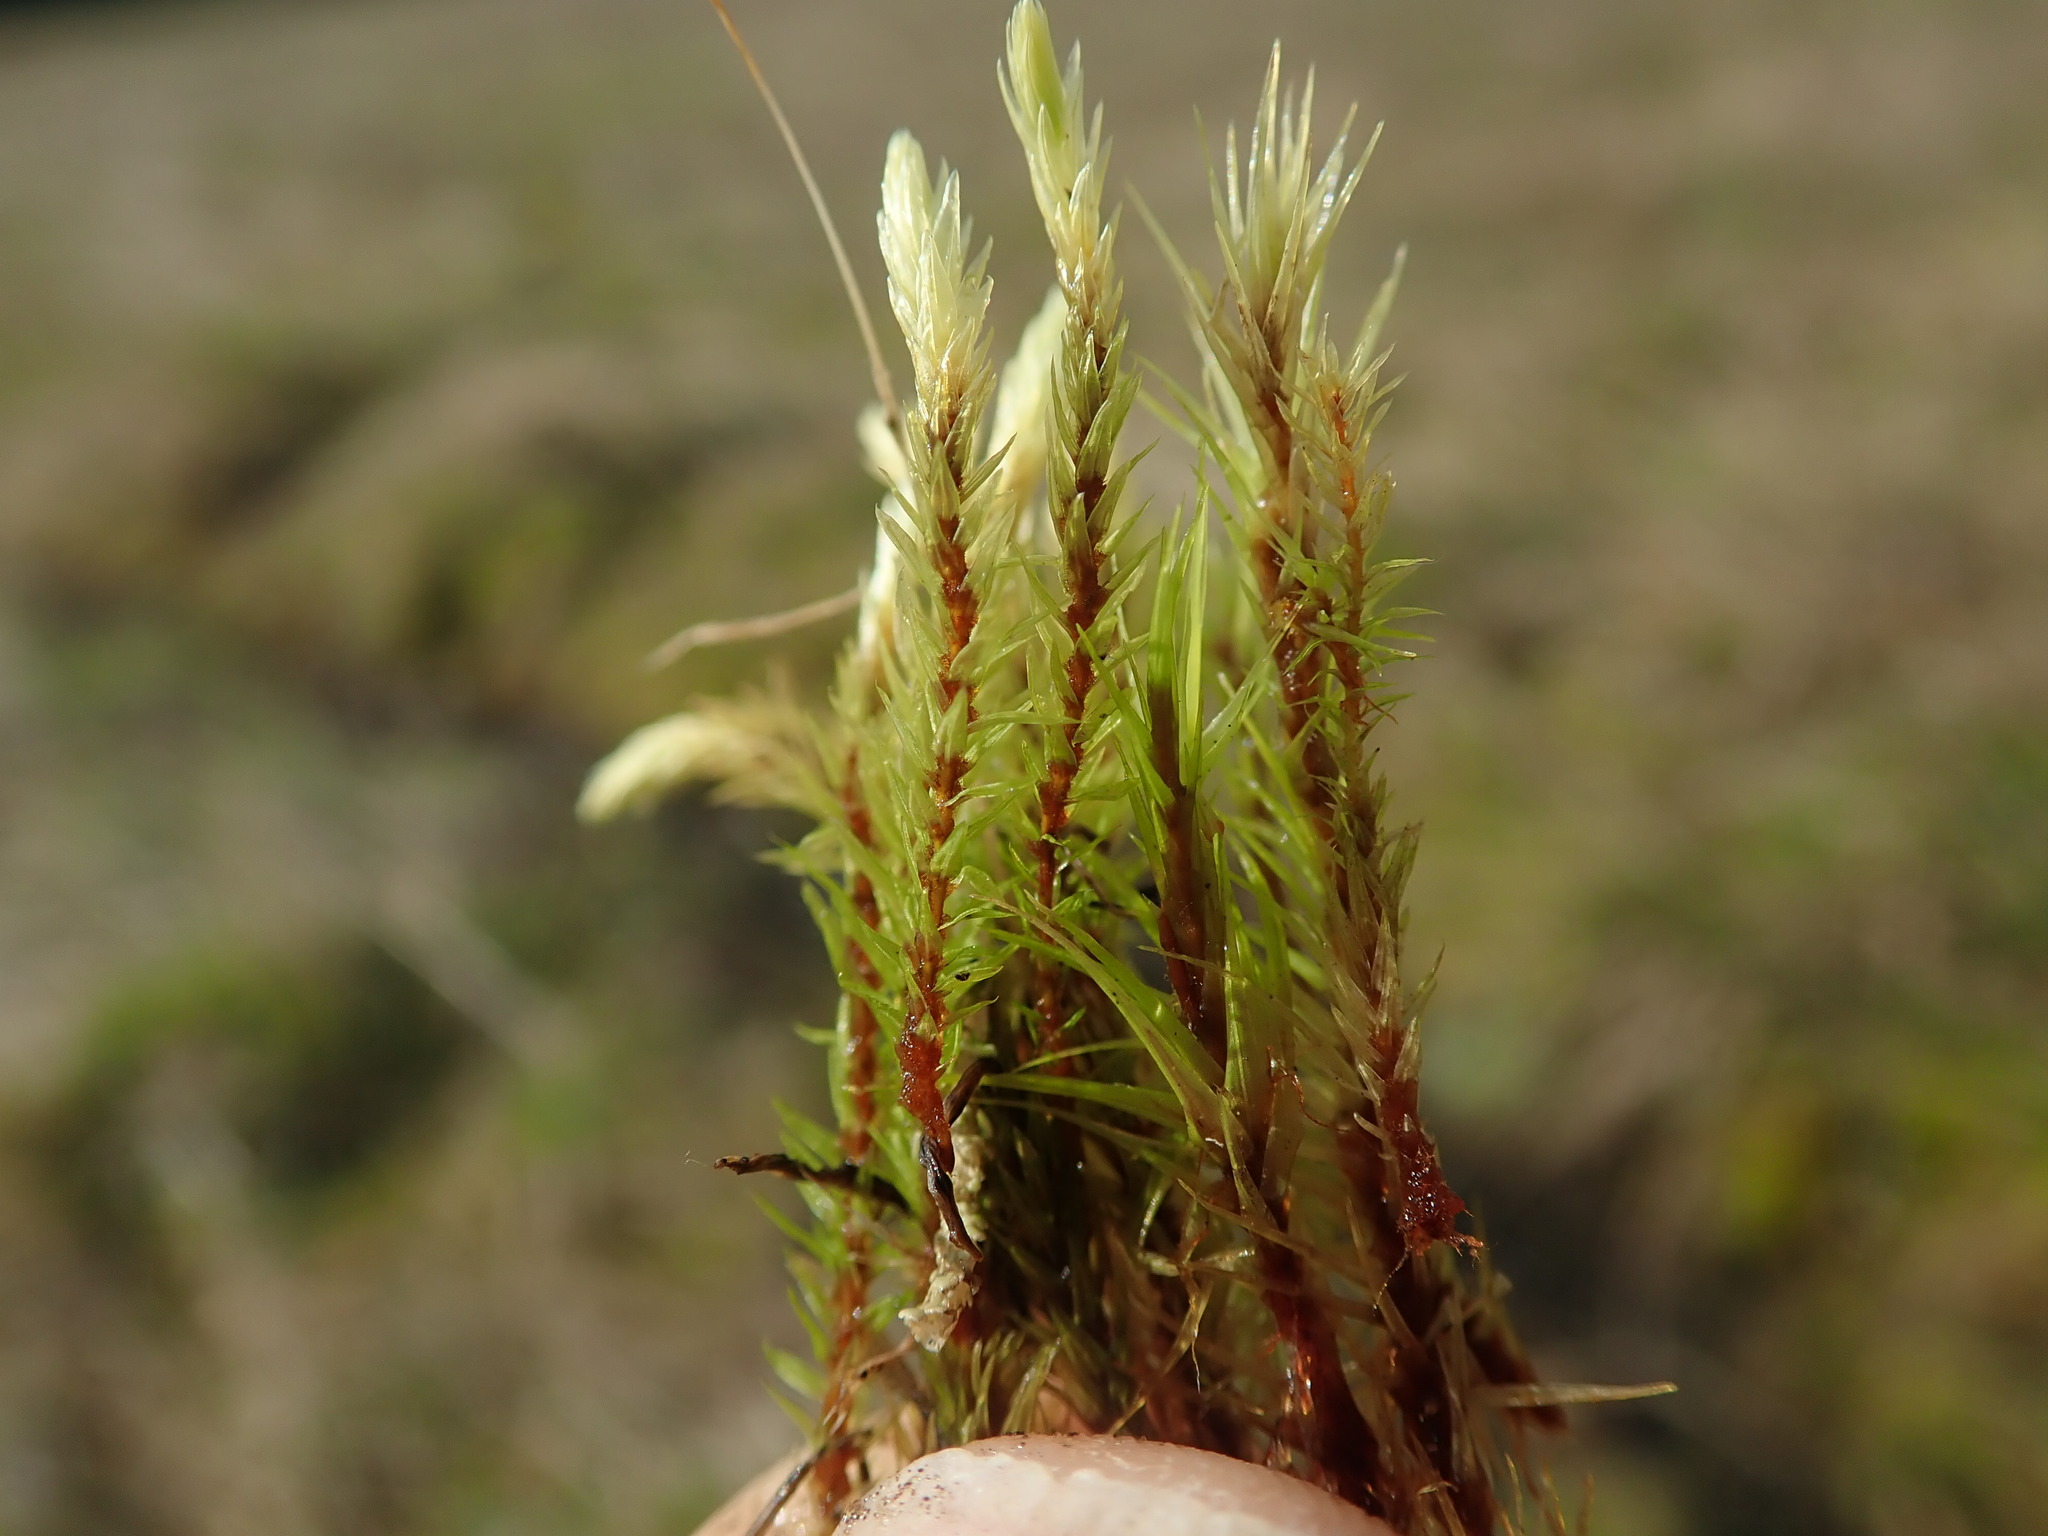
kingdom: Plantae
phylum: Bryophyta
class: Bryopsida
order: Aulacomniales
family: Aulacomniaceae
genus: Aulacomnium
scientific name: Aulacomnium palustre
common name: Bog groove-moss
